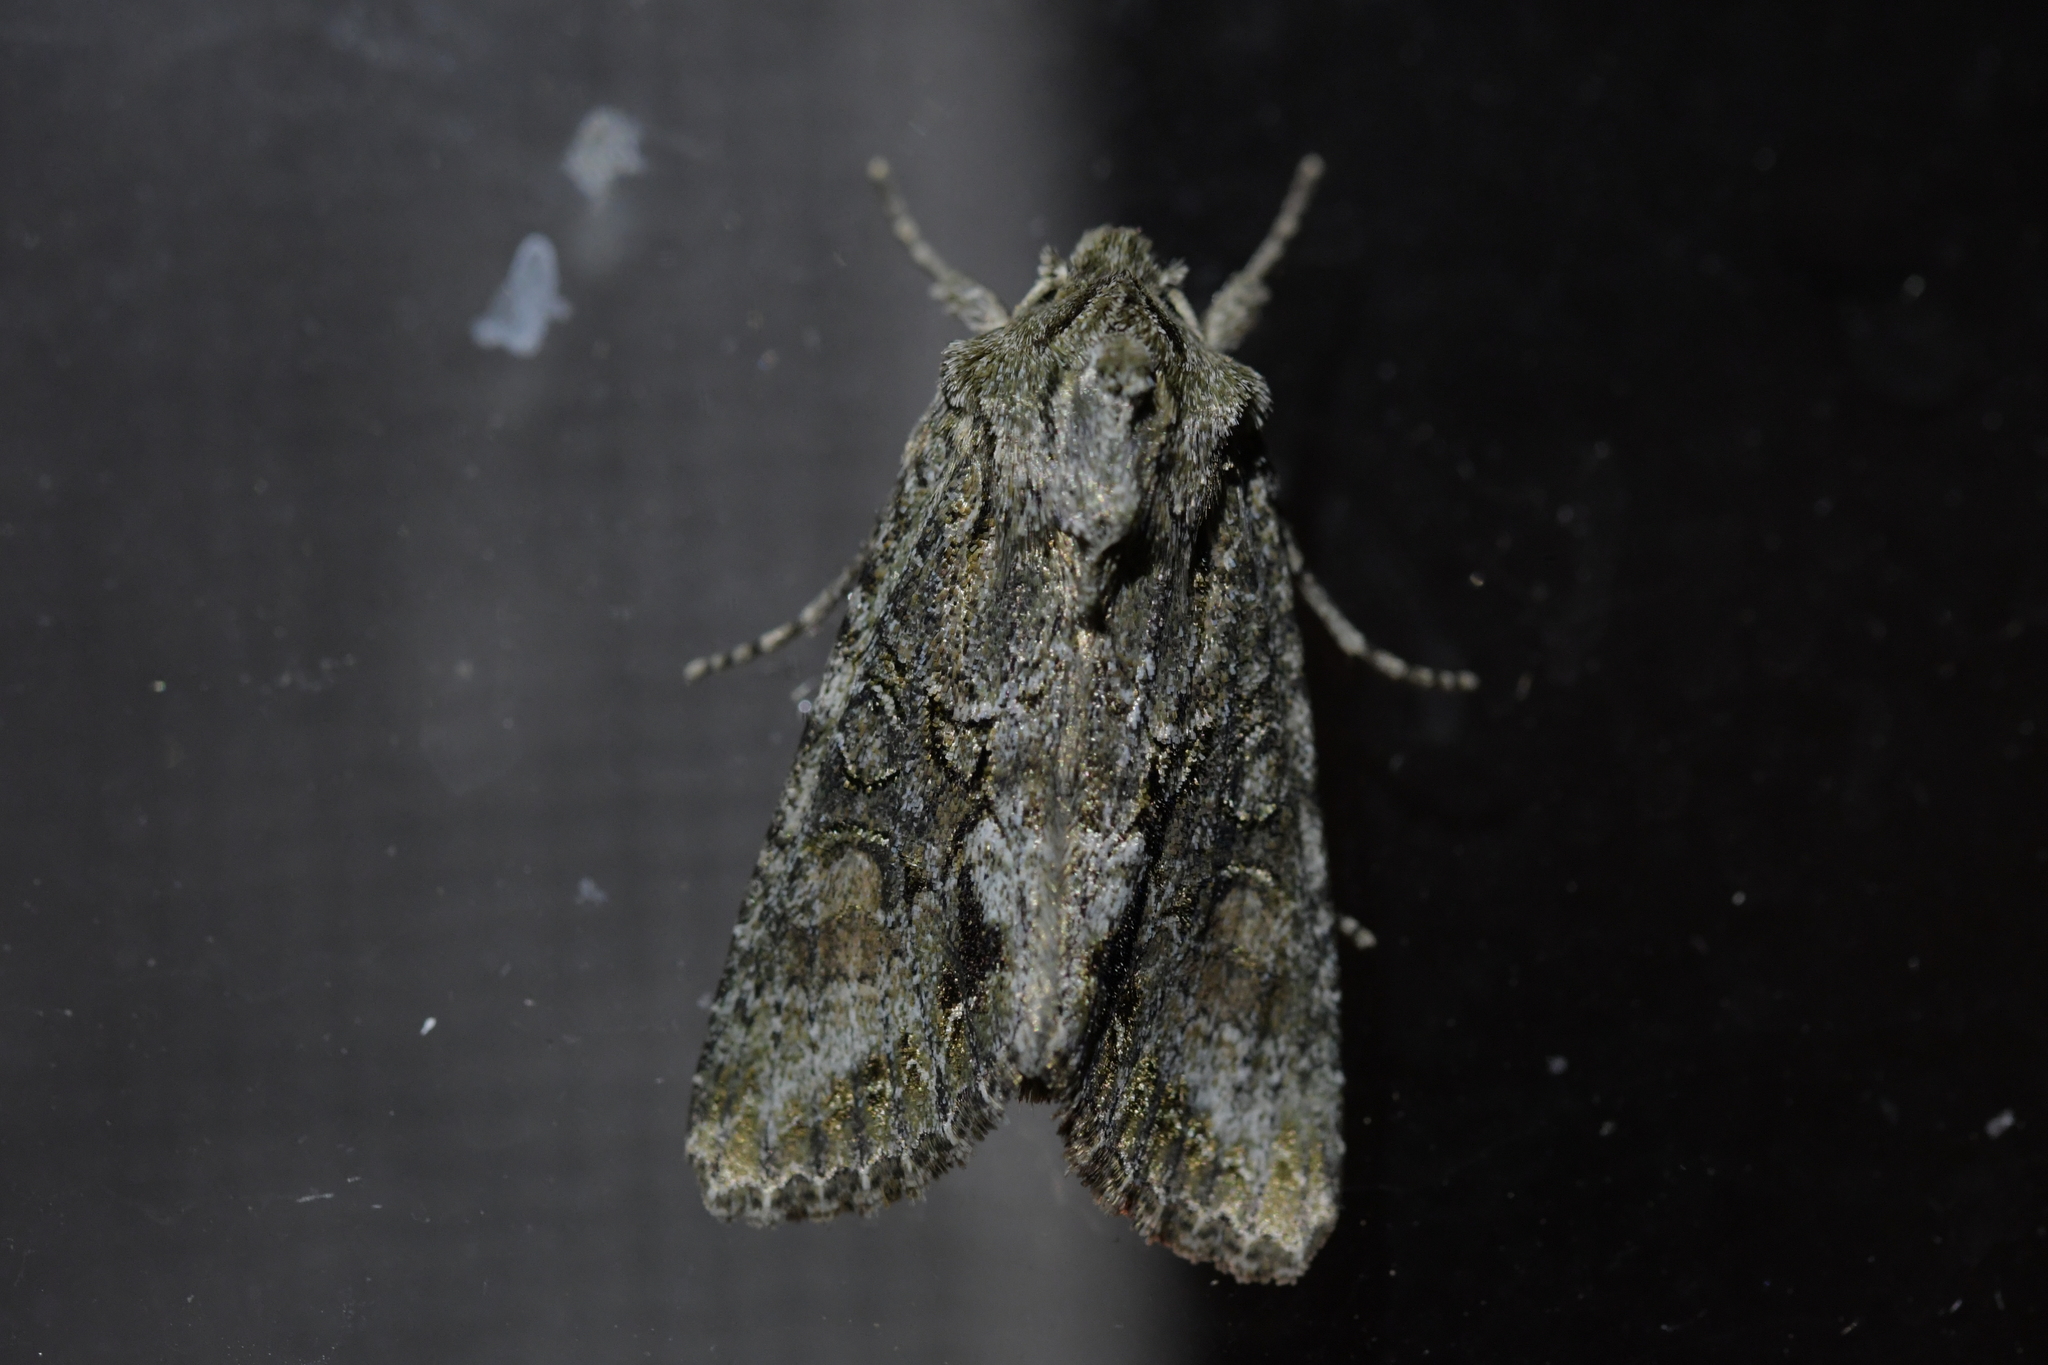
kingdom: Animalia
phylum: Arthropoda
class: Insecta
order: Lepidoptera
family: Noctuidae
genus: Ichneutica
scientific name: Ichneutica mutans
